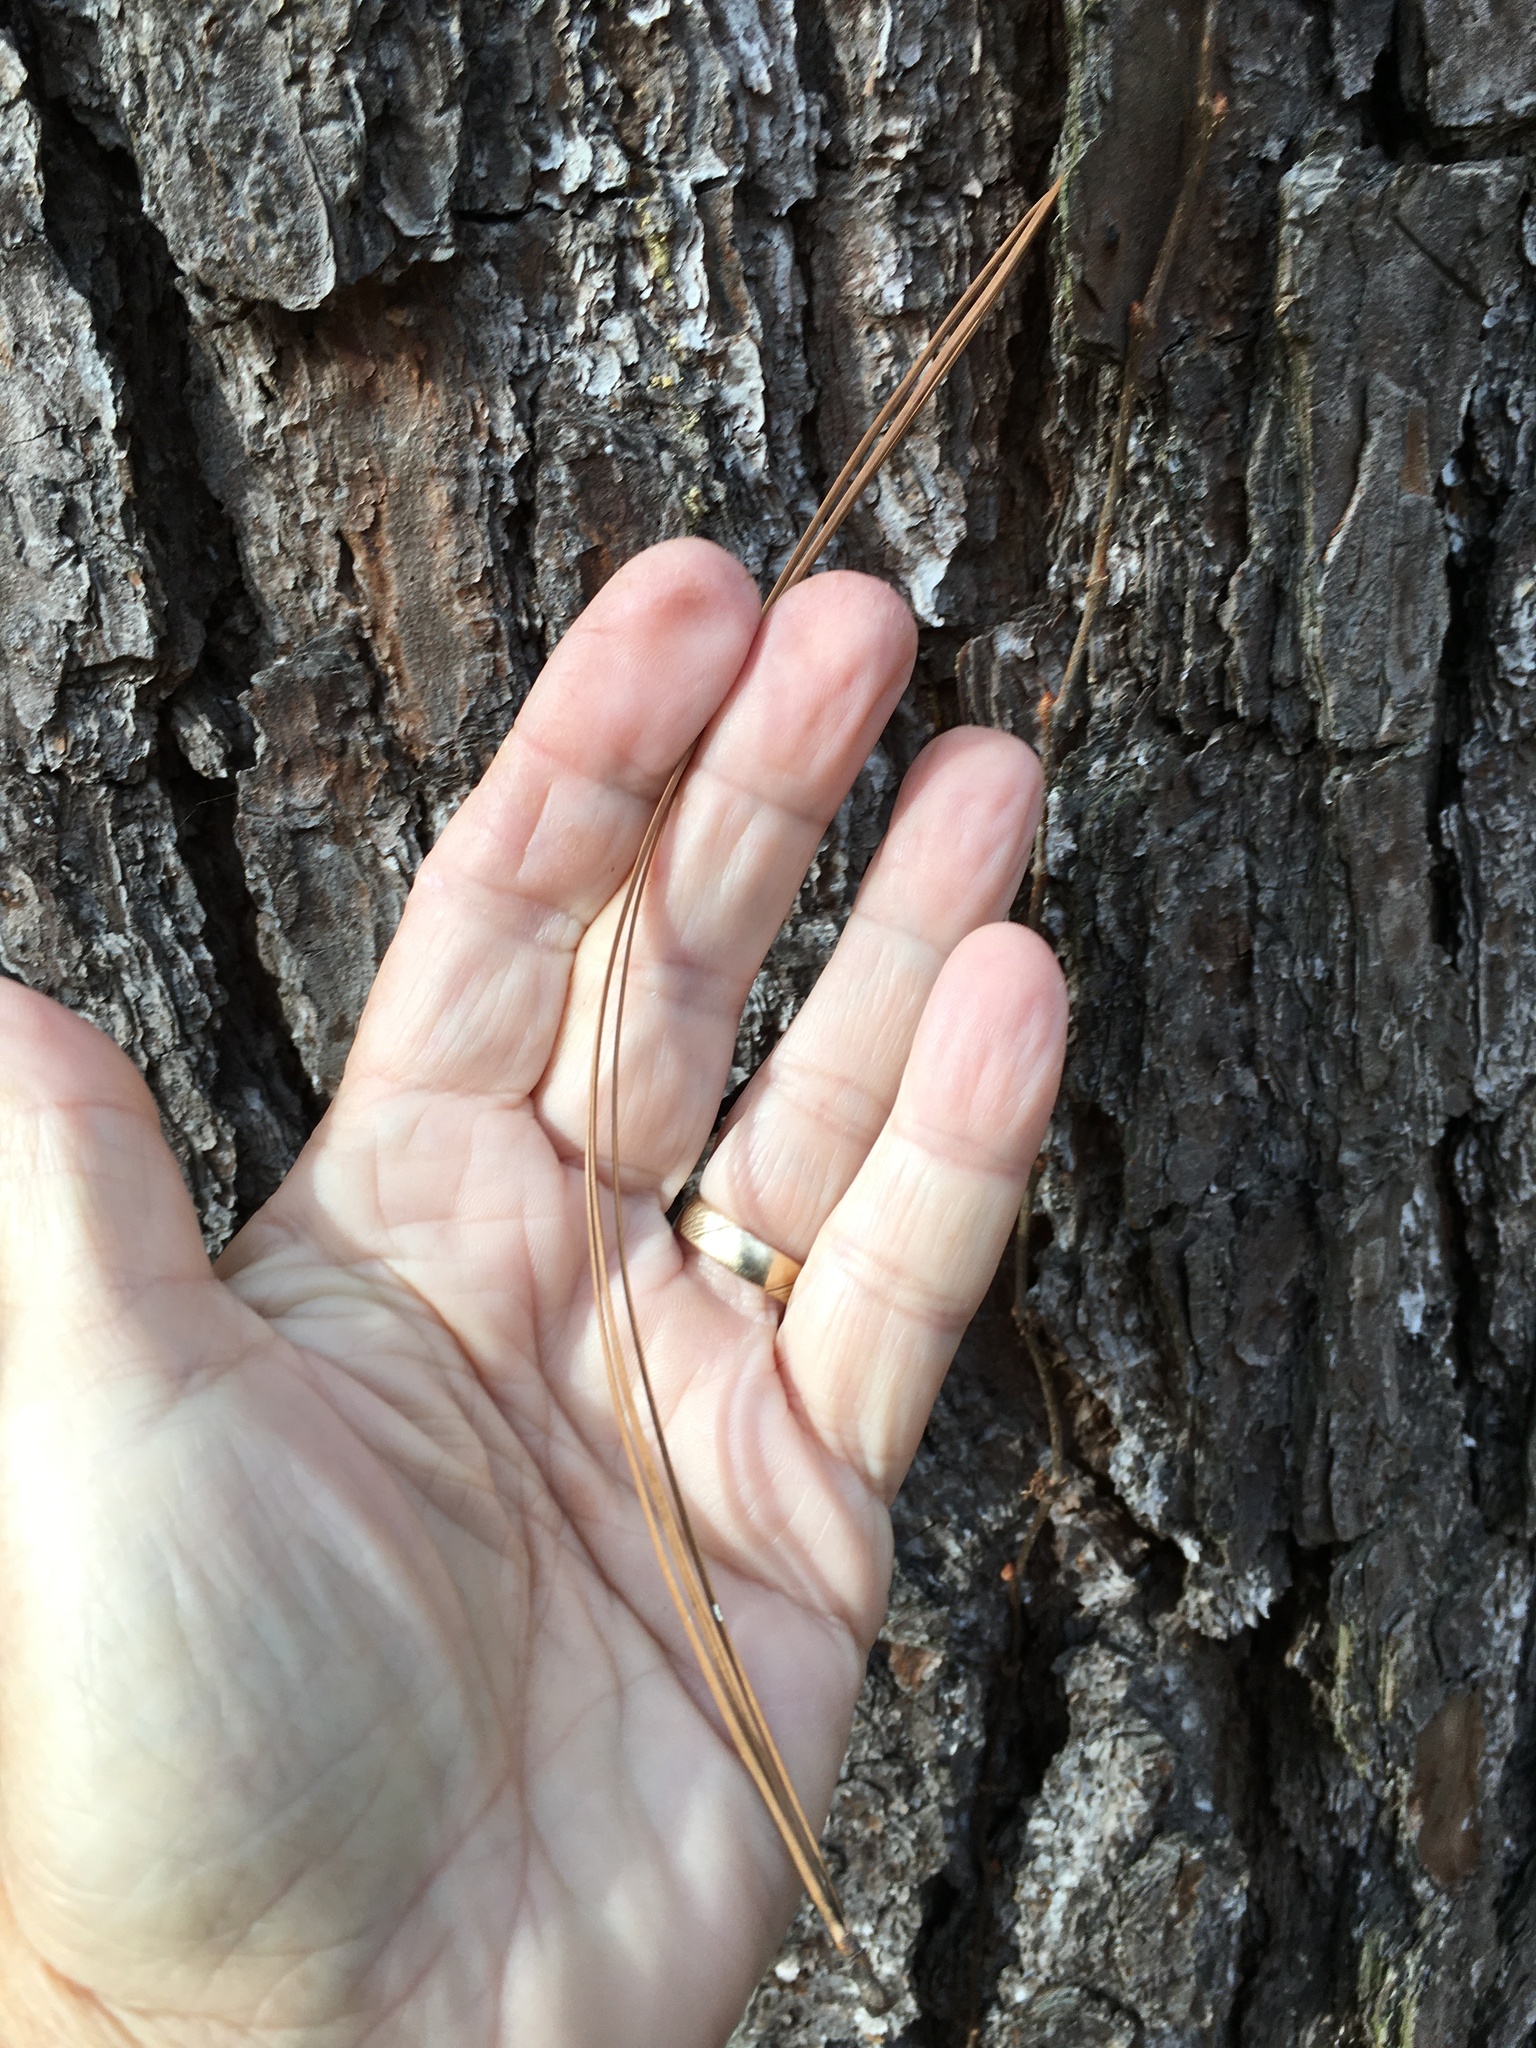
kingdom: Plantae
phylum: Tracheophyta
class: Pinopsida
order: Pinales
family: Pinaceae
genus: Pinus
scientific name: Pinus taeda
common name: Loblolly pine
